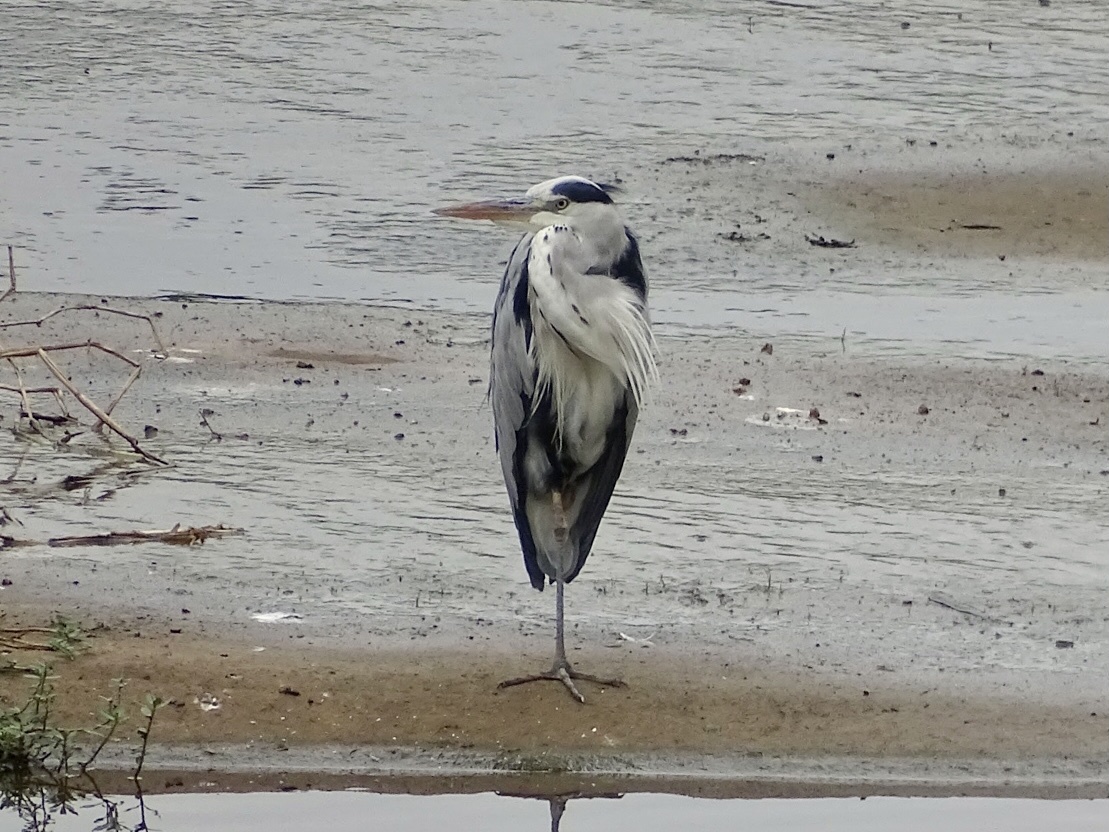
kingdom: Animalia
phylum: Chordata
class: Aves
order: Pelecaniformes
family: Ardeidae
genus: Ardea
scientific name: Ardea cinerea
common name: Grey heron
